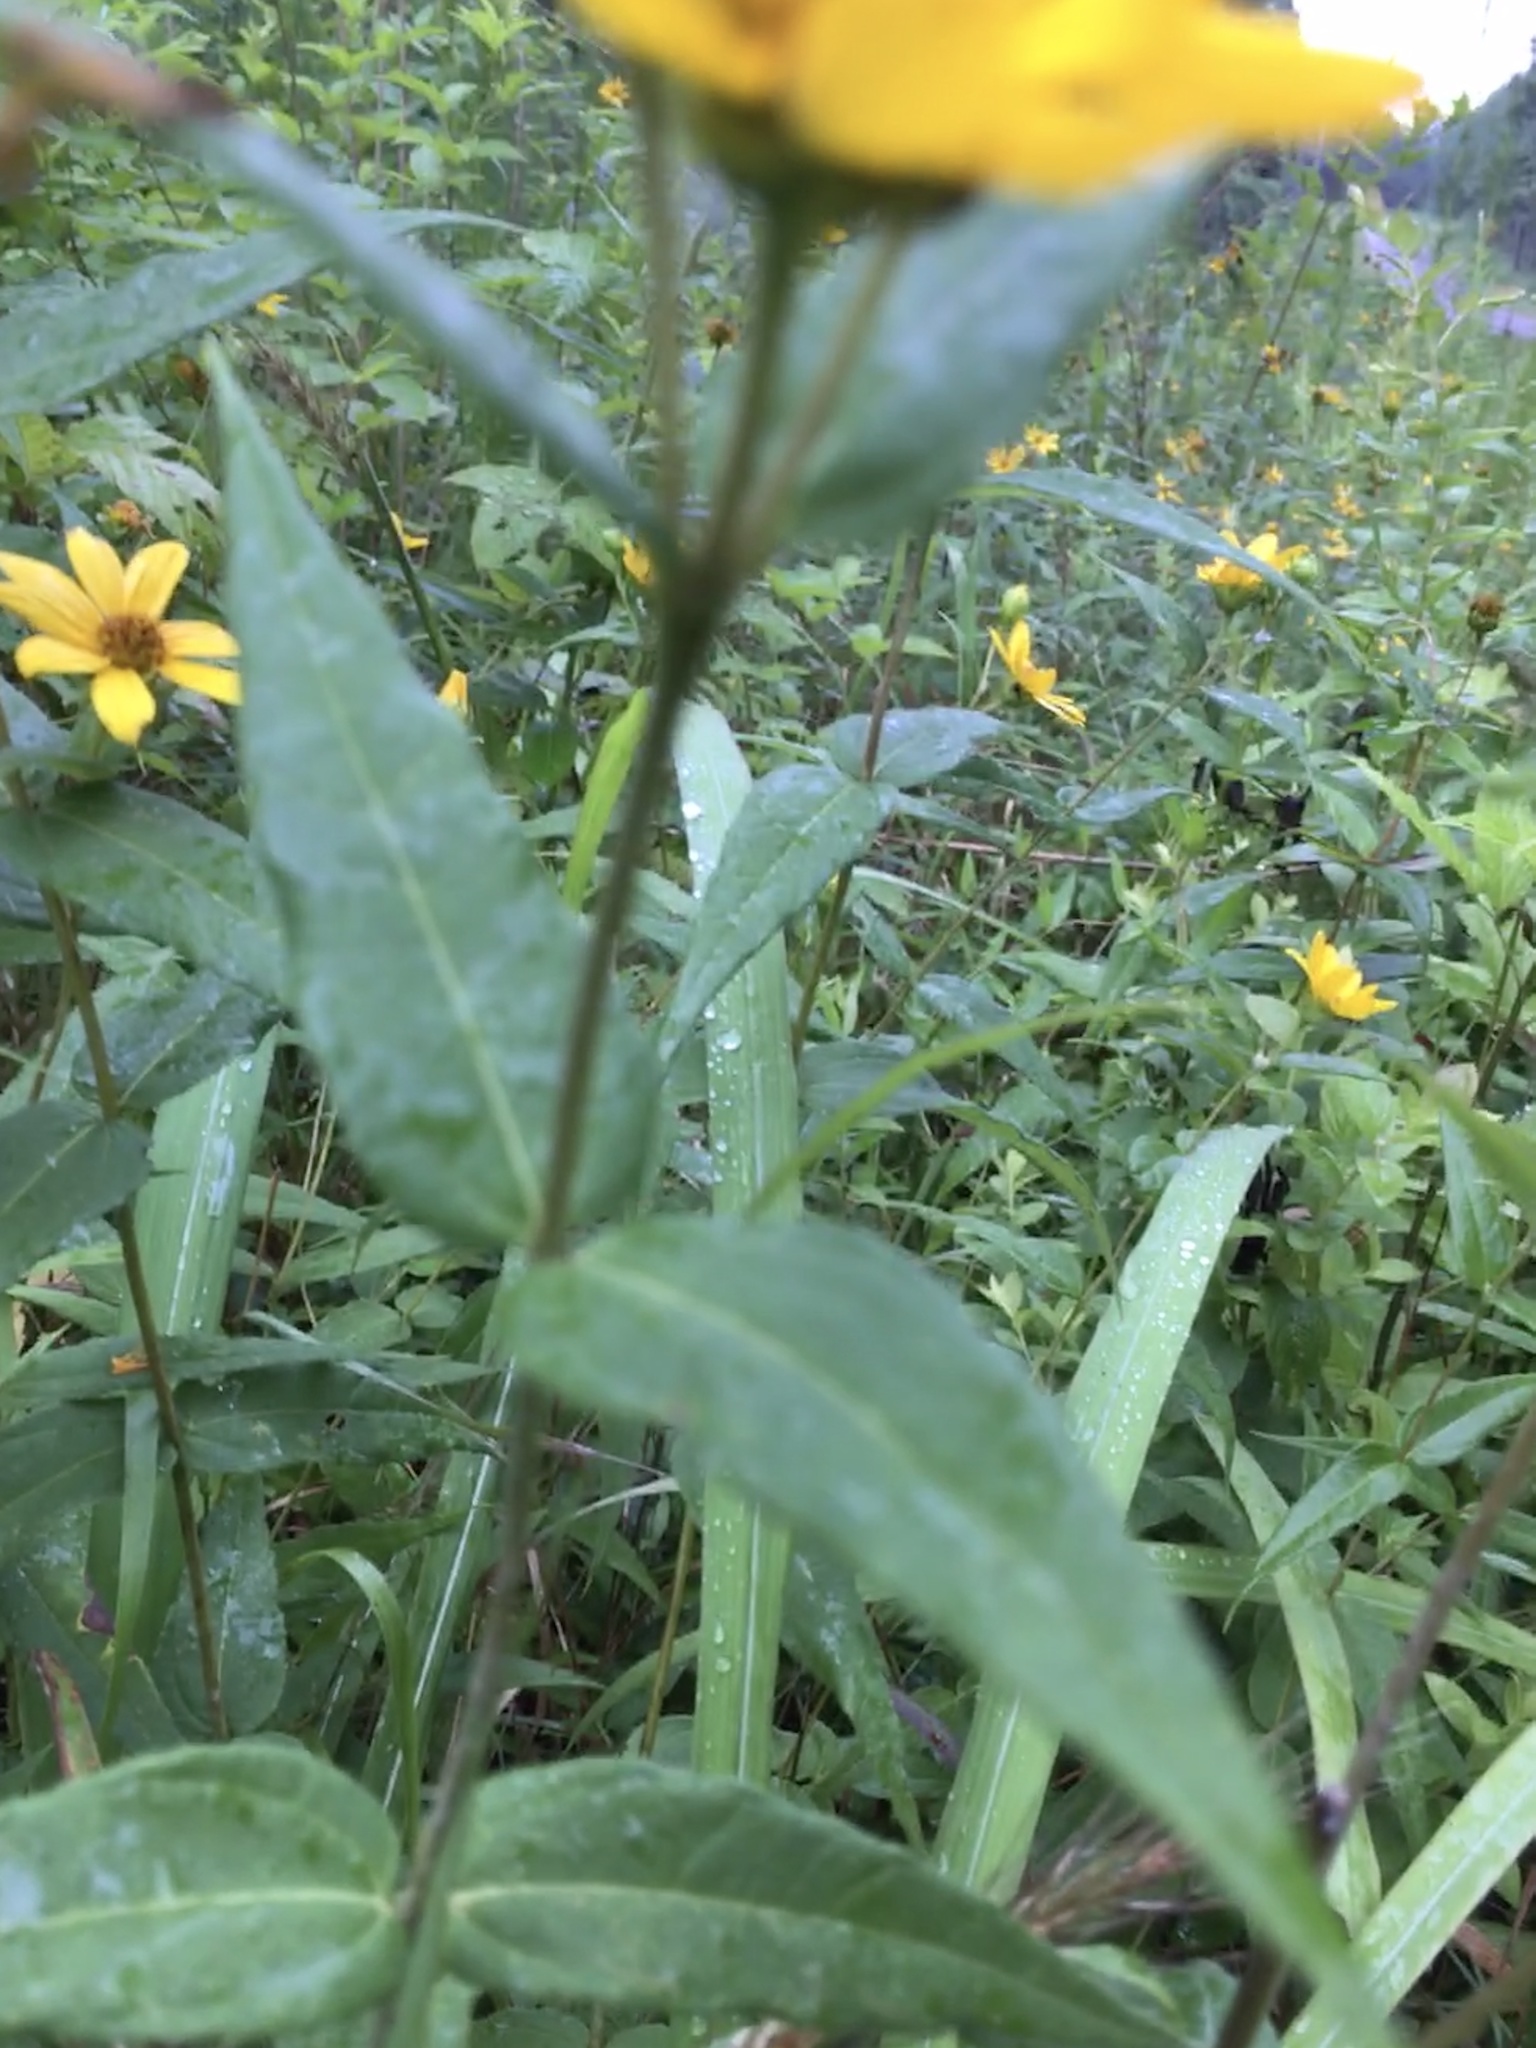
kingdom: Plantae
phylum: Tracheophyta
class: Magnoliopsida
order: Asterales
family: Asteraceae
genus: Helianthus
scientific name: Helianthus divaricatus
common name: Divergent sunflower
